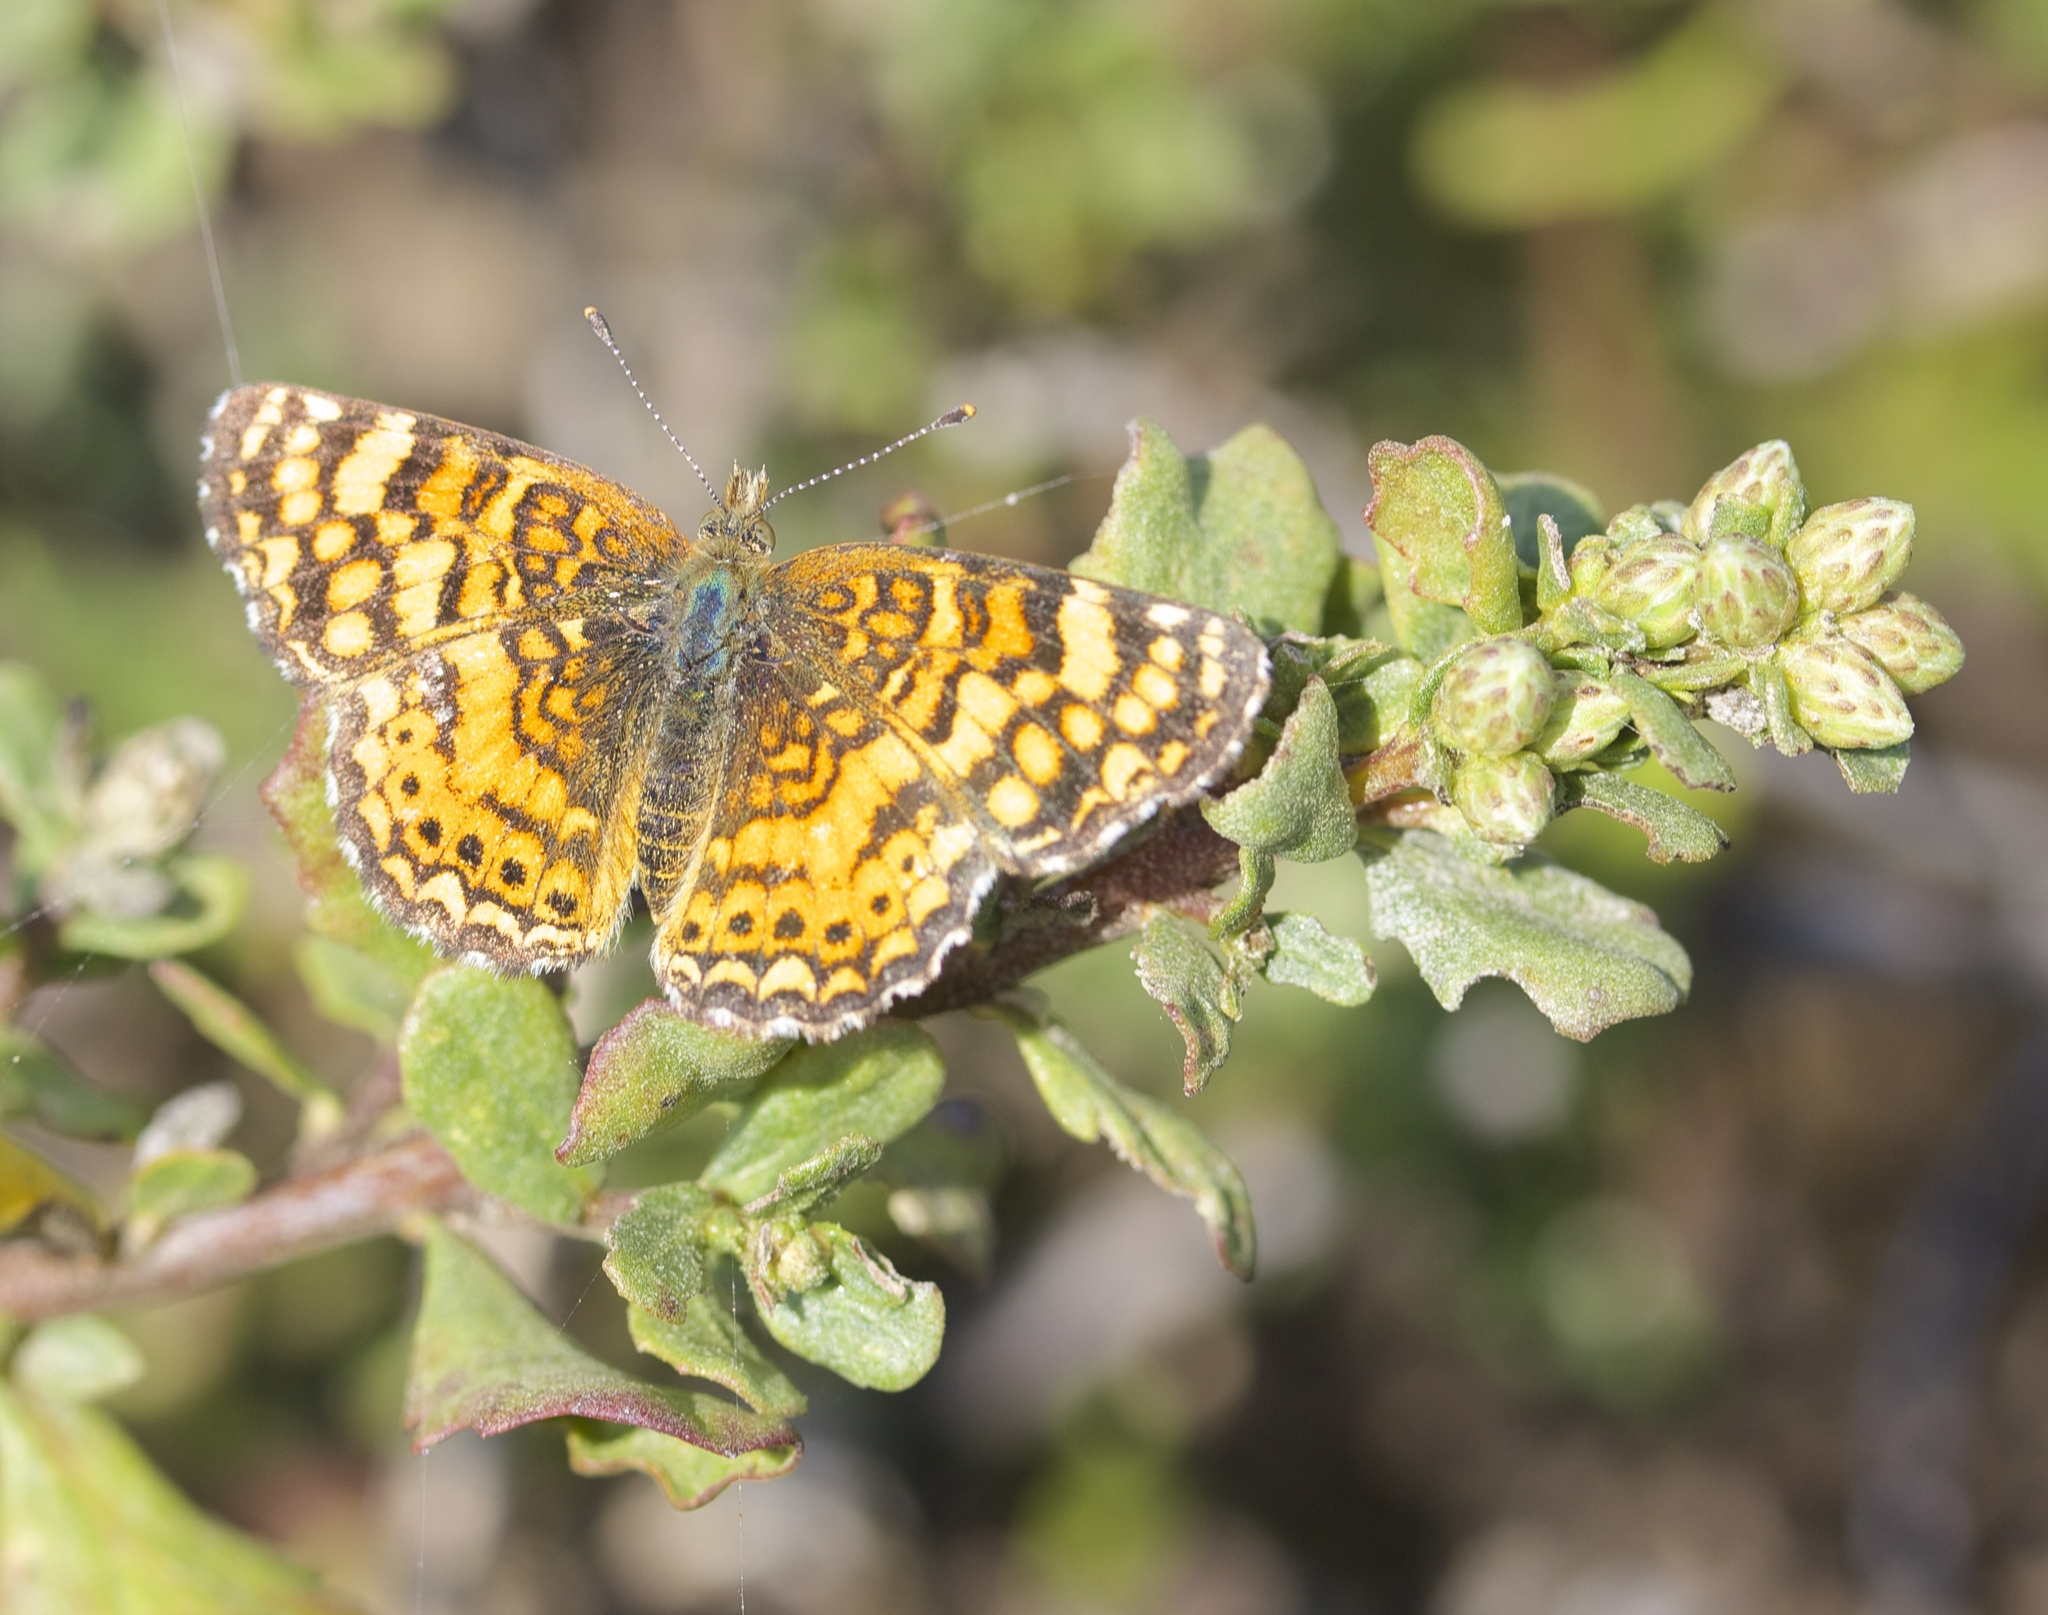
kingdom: Animalia
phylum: Arthropoda
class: Insecta
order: Lepidoptera
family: Nymphalidae
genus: Eresia
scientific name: Eresia aveyrona
